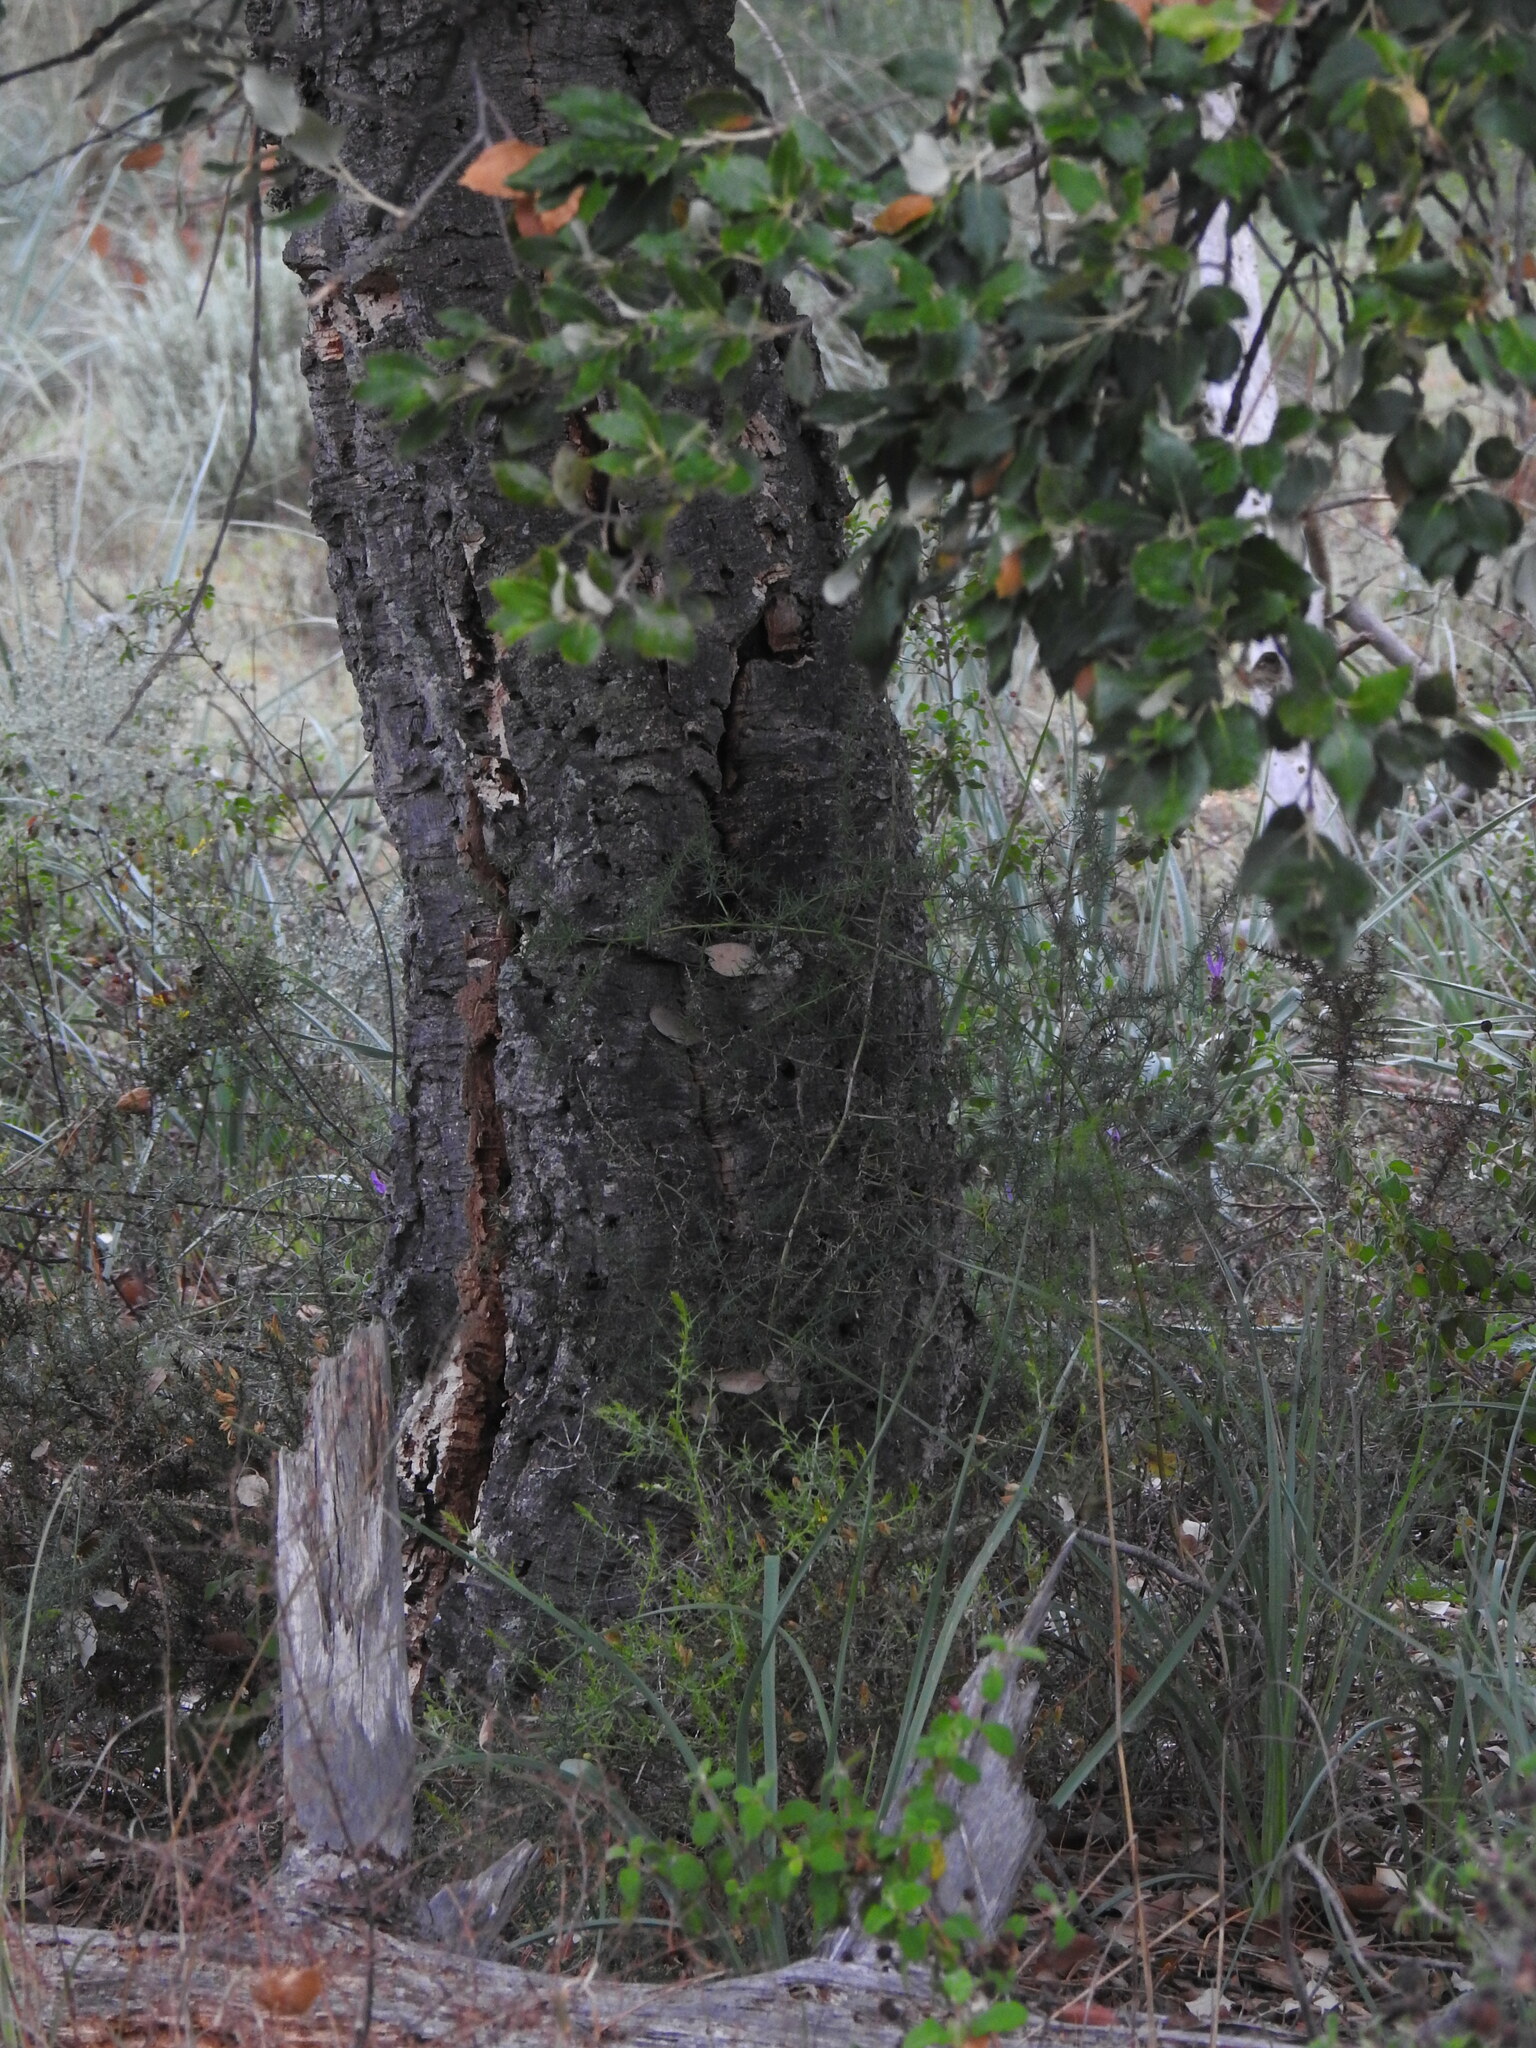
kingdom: Plantae
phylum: Tracheophyta
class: Magnoliopsida
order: Fagales
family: Fagaceae
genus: Quercus
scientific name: Quercus suber
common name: Cork oak
